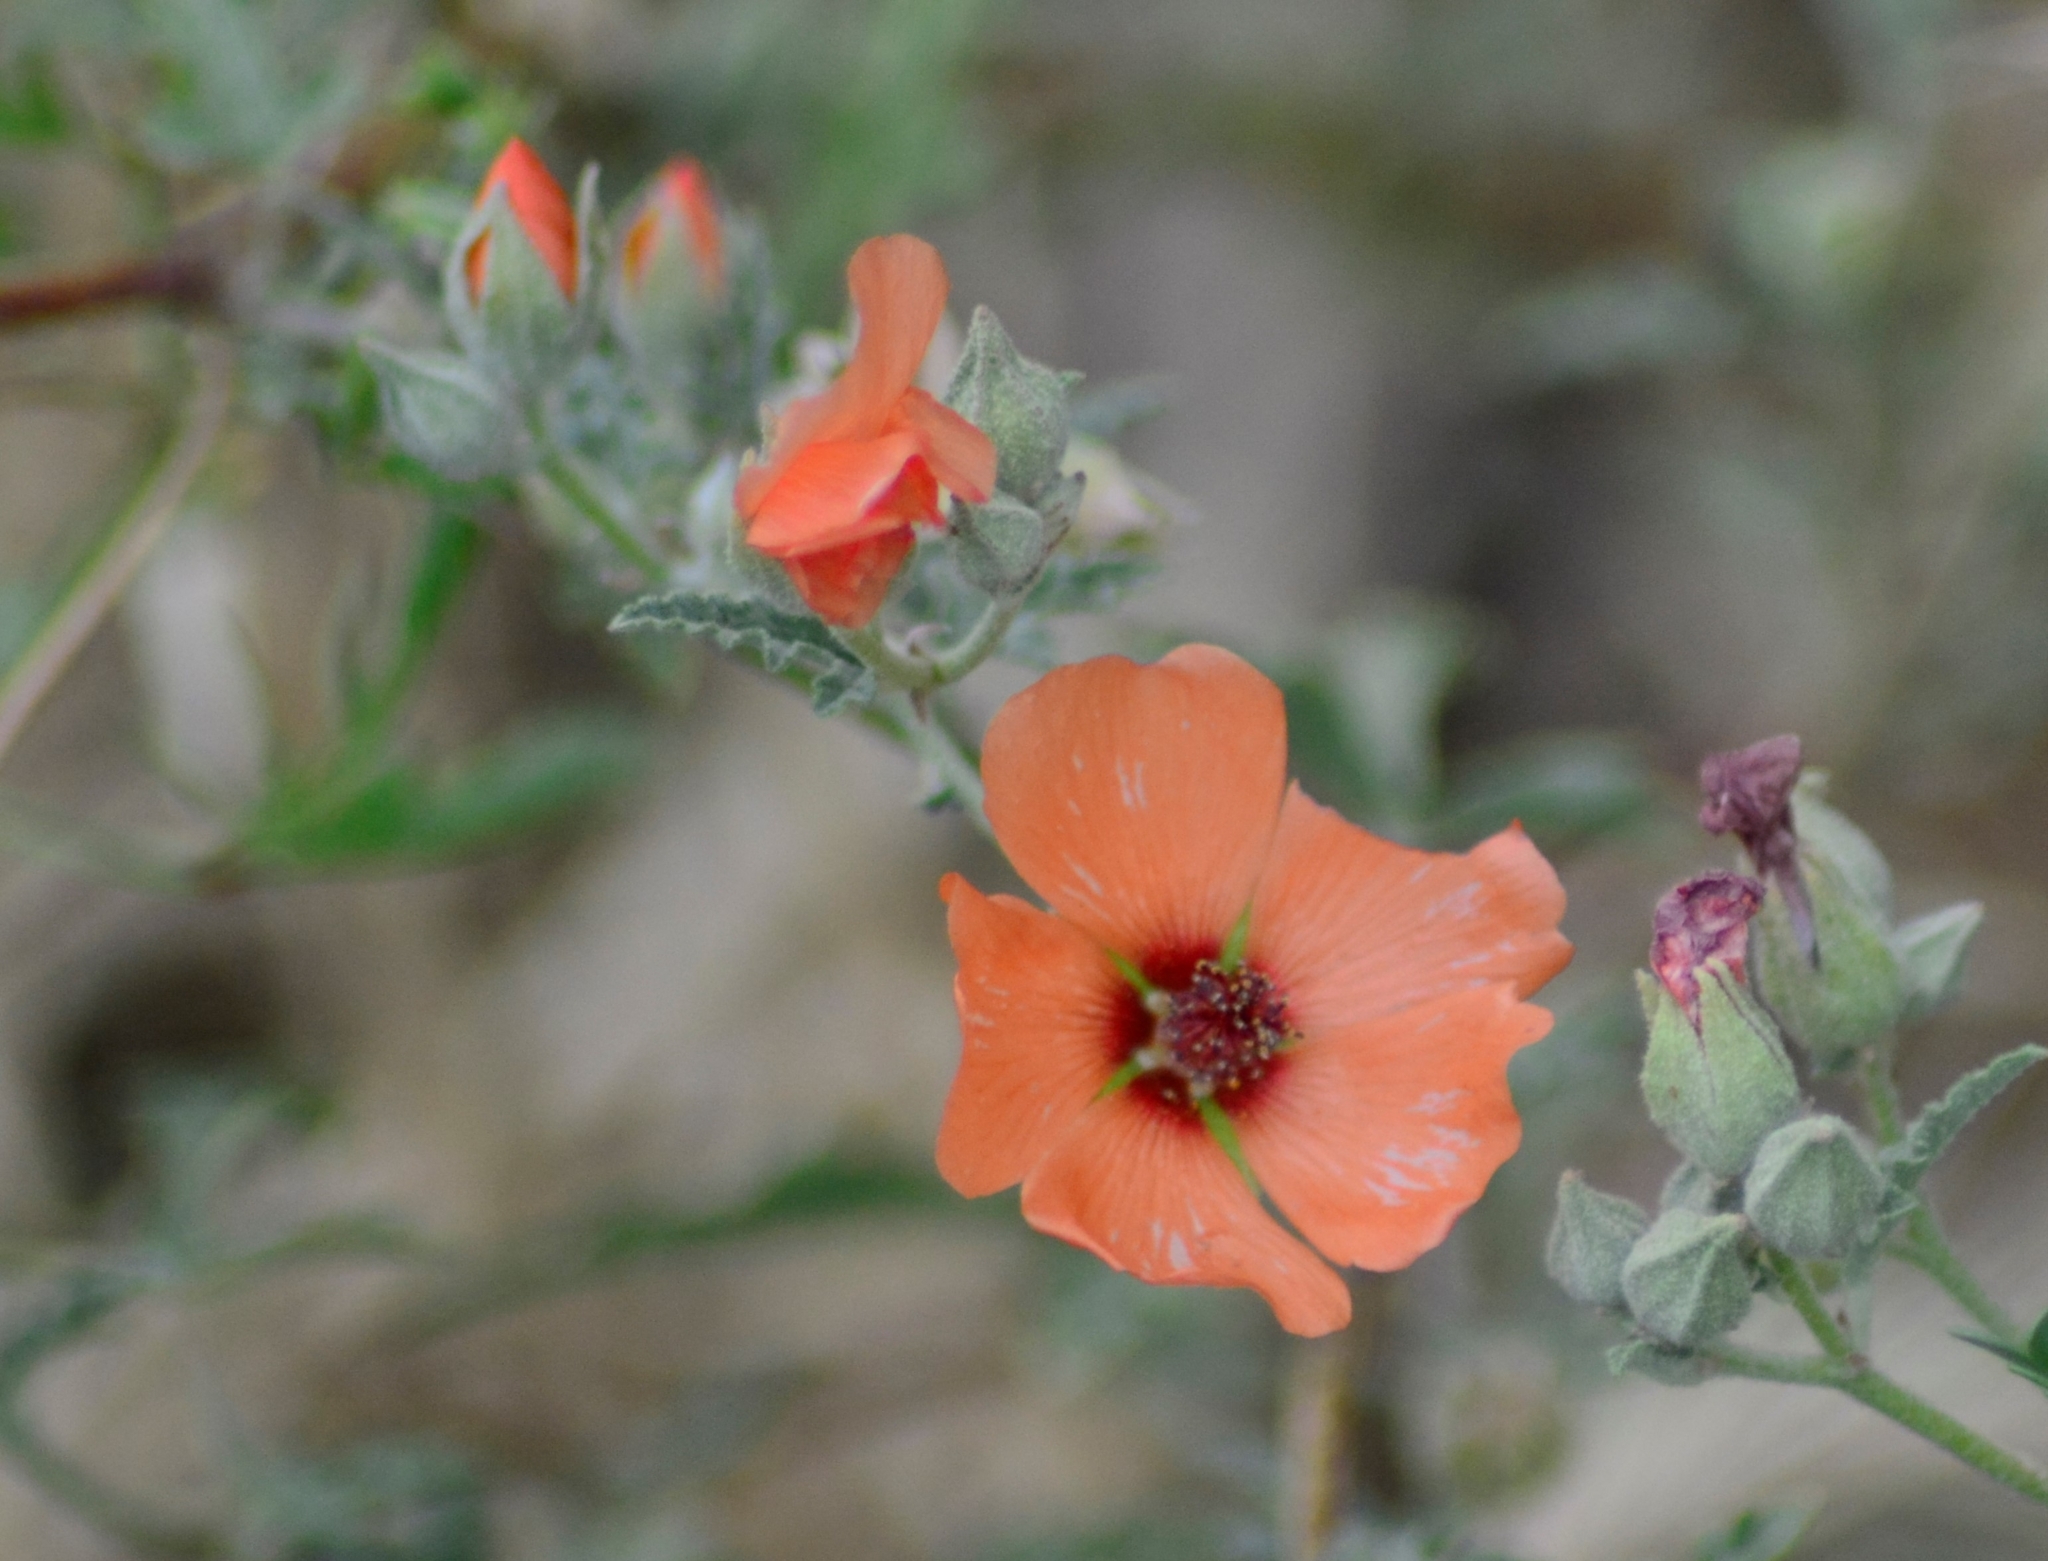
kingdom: Plantae
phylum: Tracheophyta
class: Magnoliopsida
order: Malvales
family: Malvaceae
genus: Sphaeralcea
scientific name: Sphaeralcea miniata
